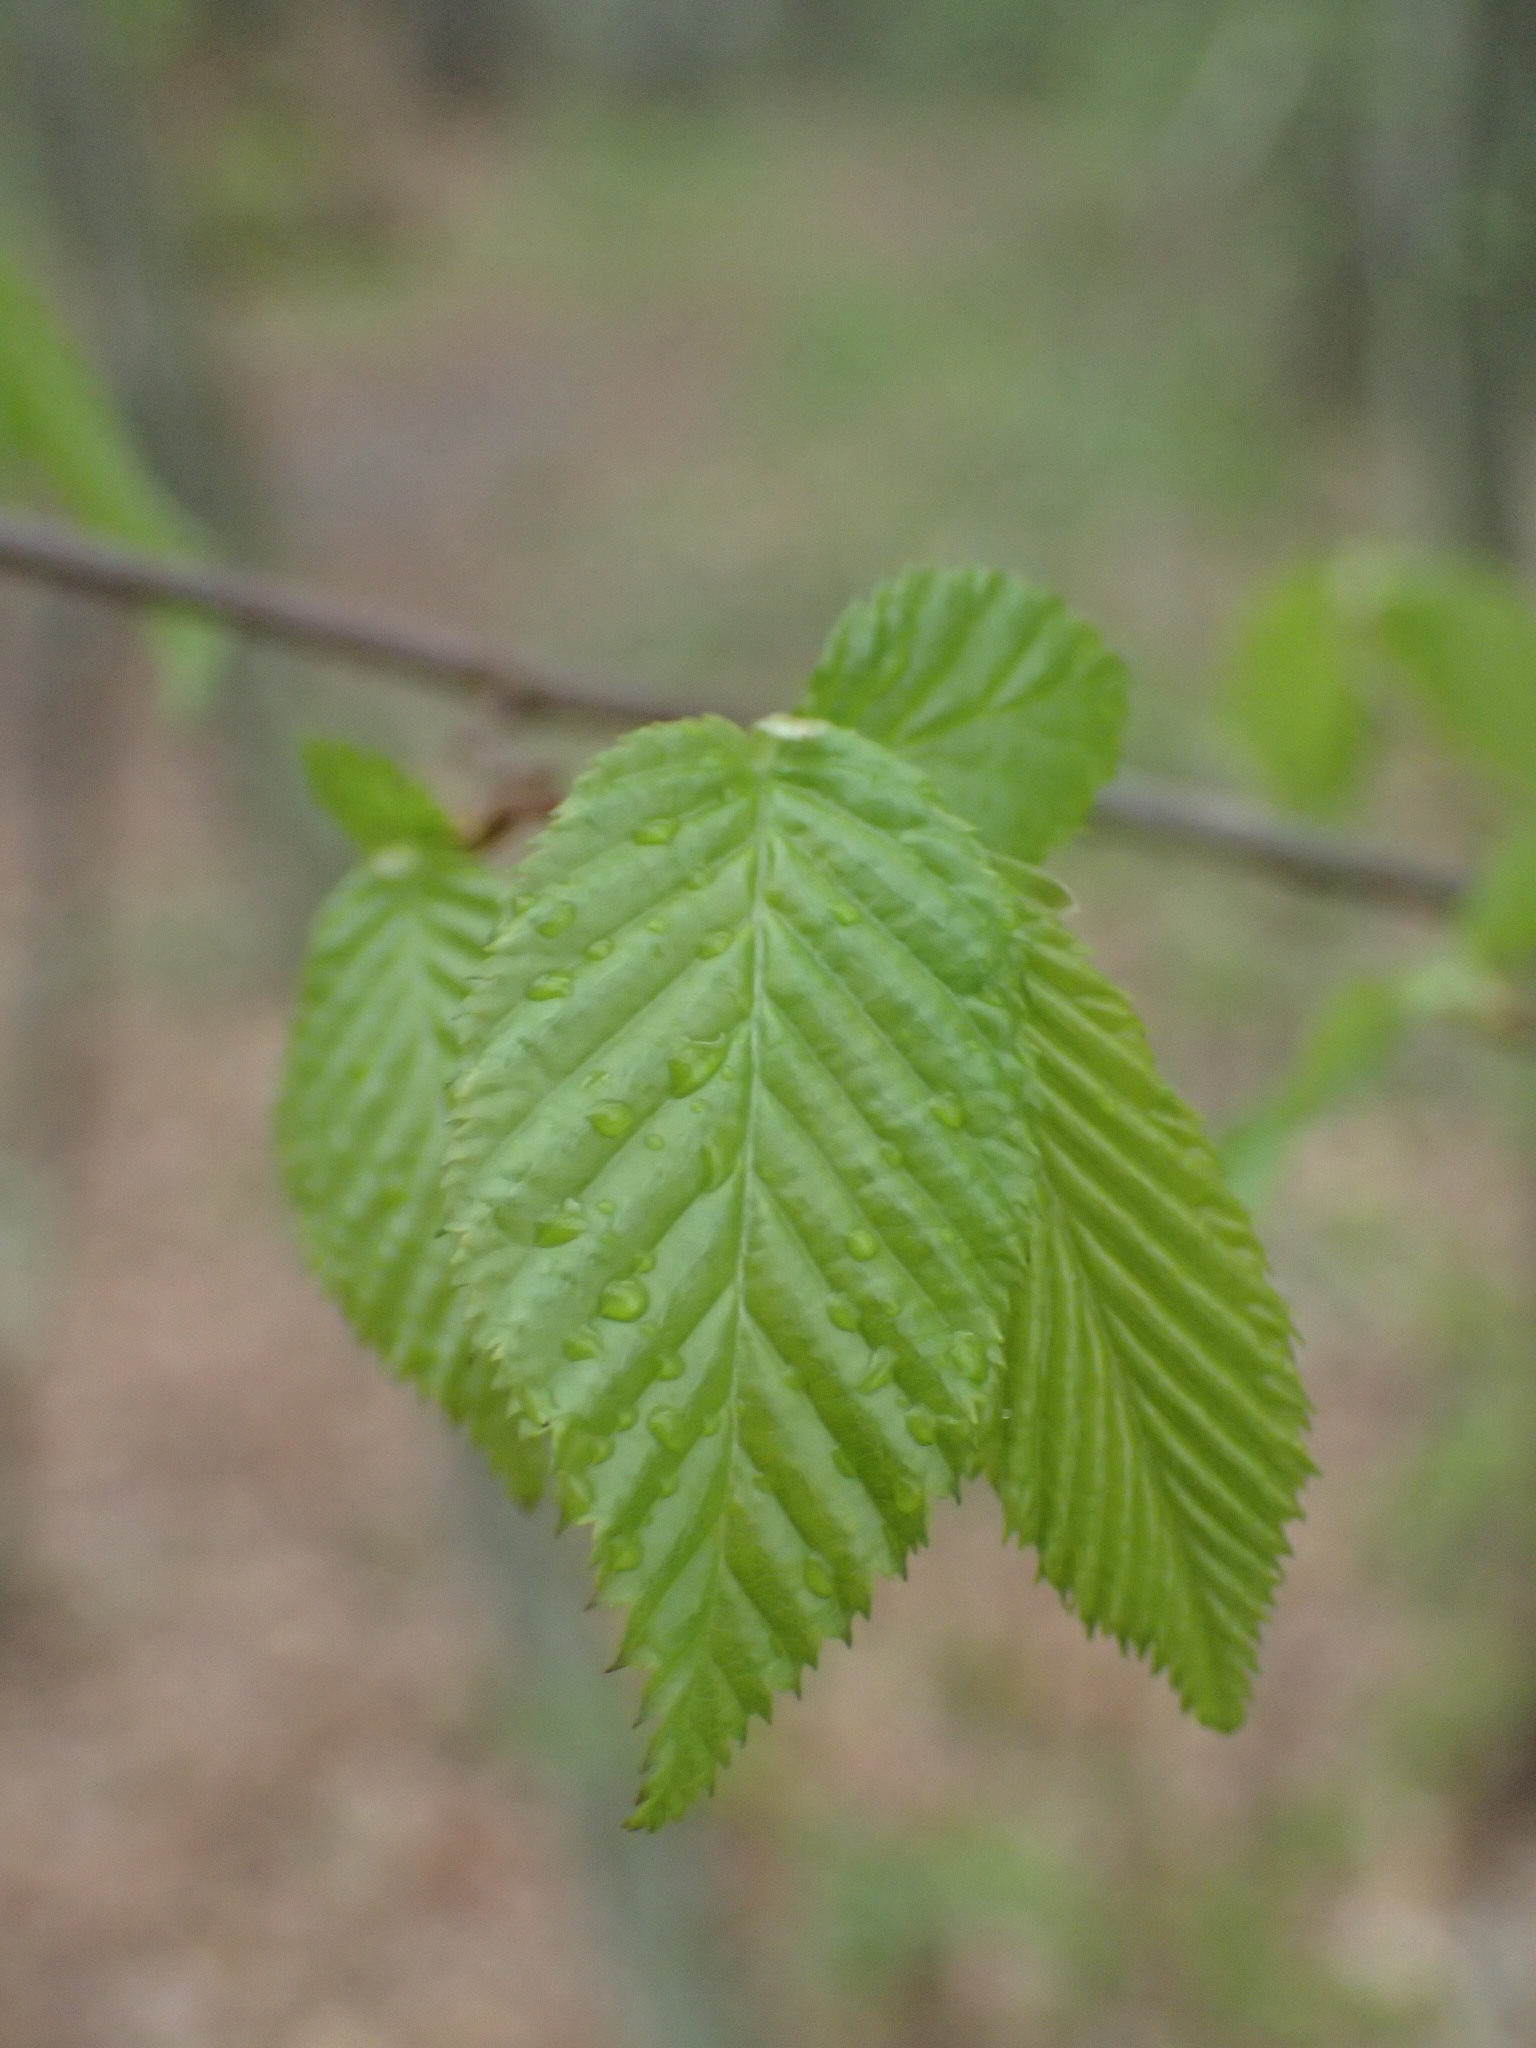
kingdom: Plantae
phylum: Tracheophyta
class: Magnoliopsida
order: Fagales
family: Betulaceae
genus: Carpinus
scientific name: Carpinus caroliniana
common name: American hornbeam
